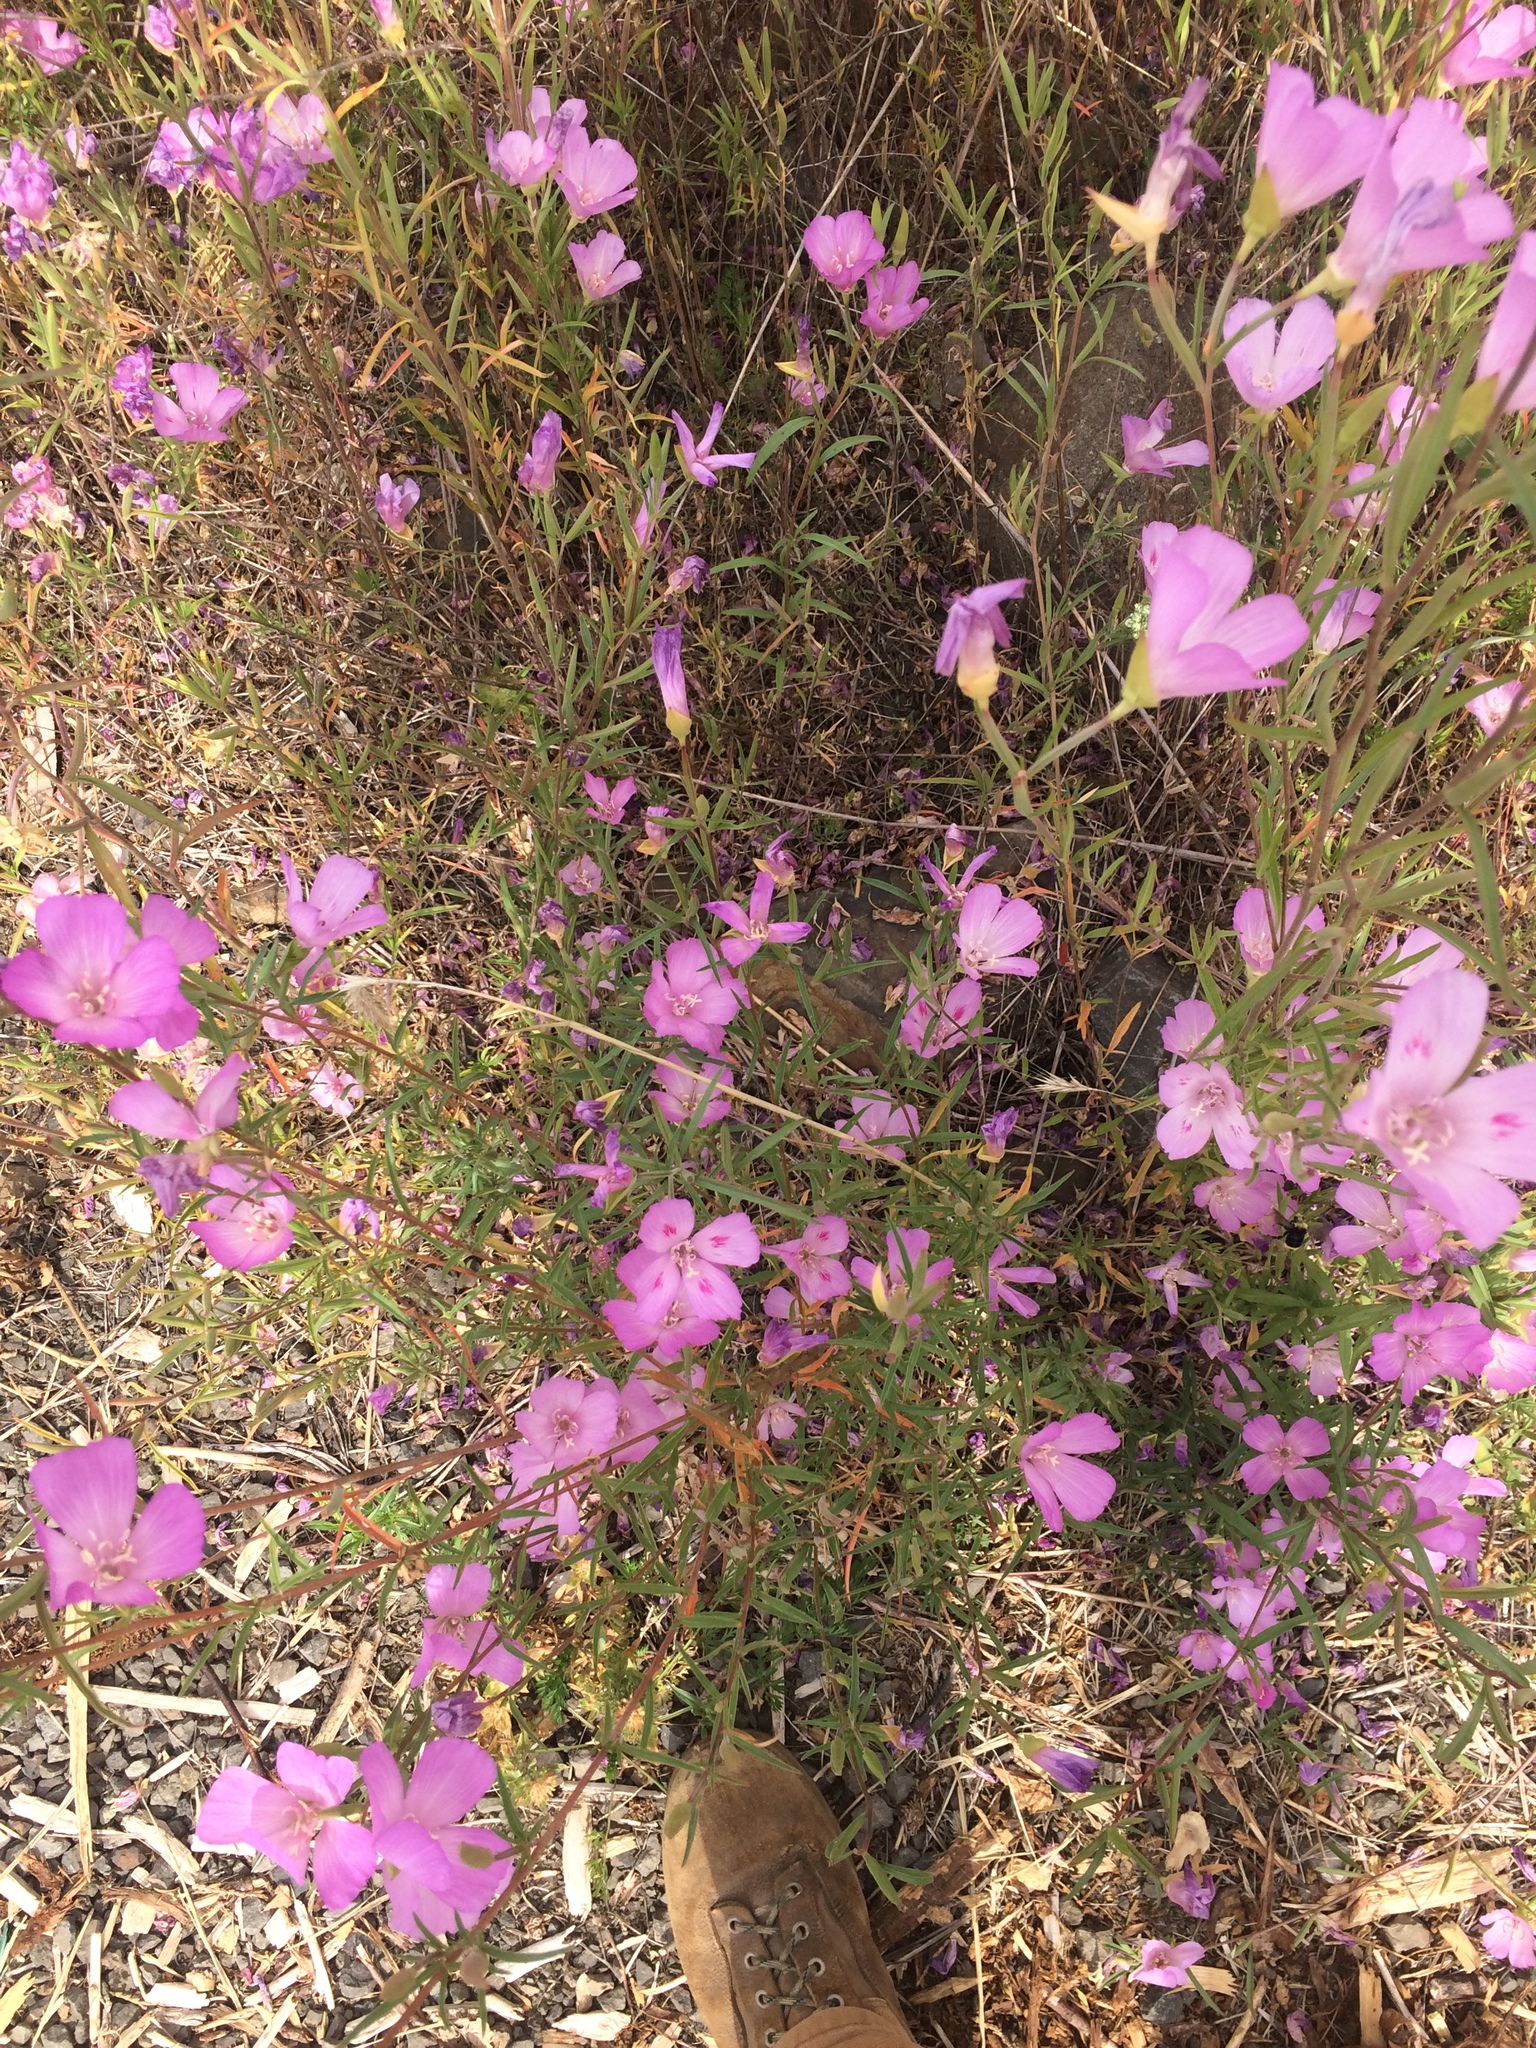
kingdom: Plantae
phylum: Tracheophyta
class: Magnoliopsida
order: Myrtales
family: Onagraceae
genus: Clarkia
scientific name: Clarkia amoena
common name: Godetia
